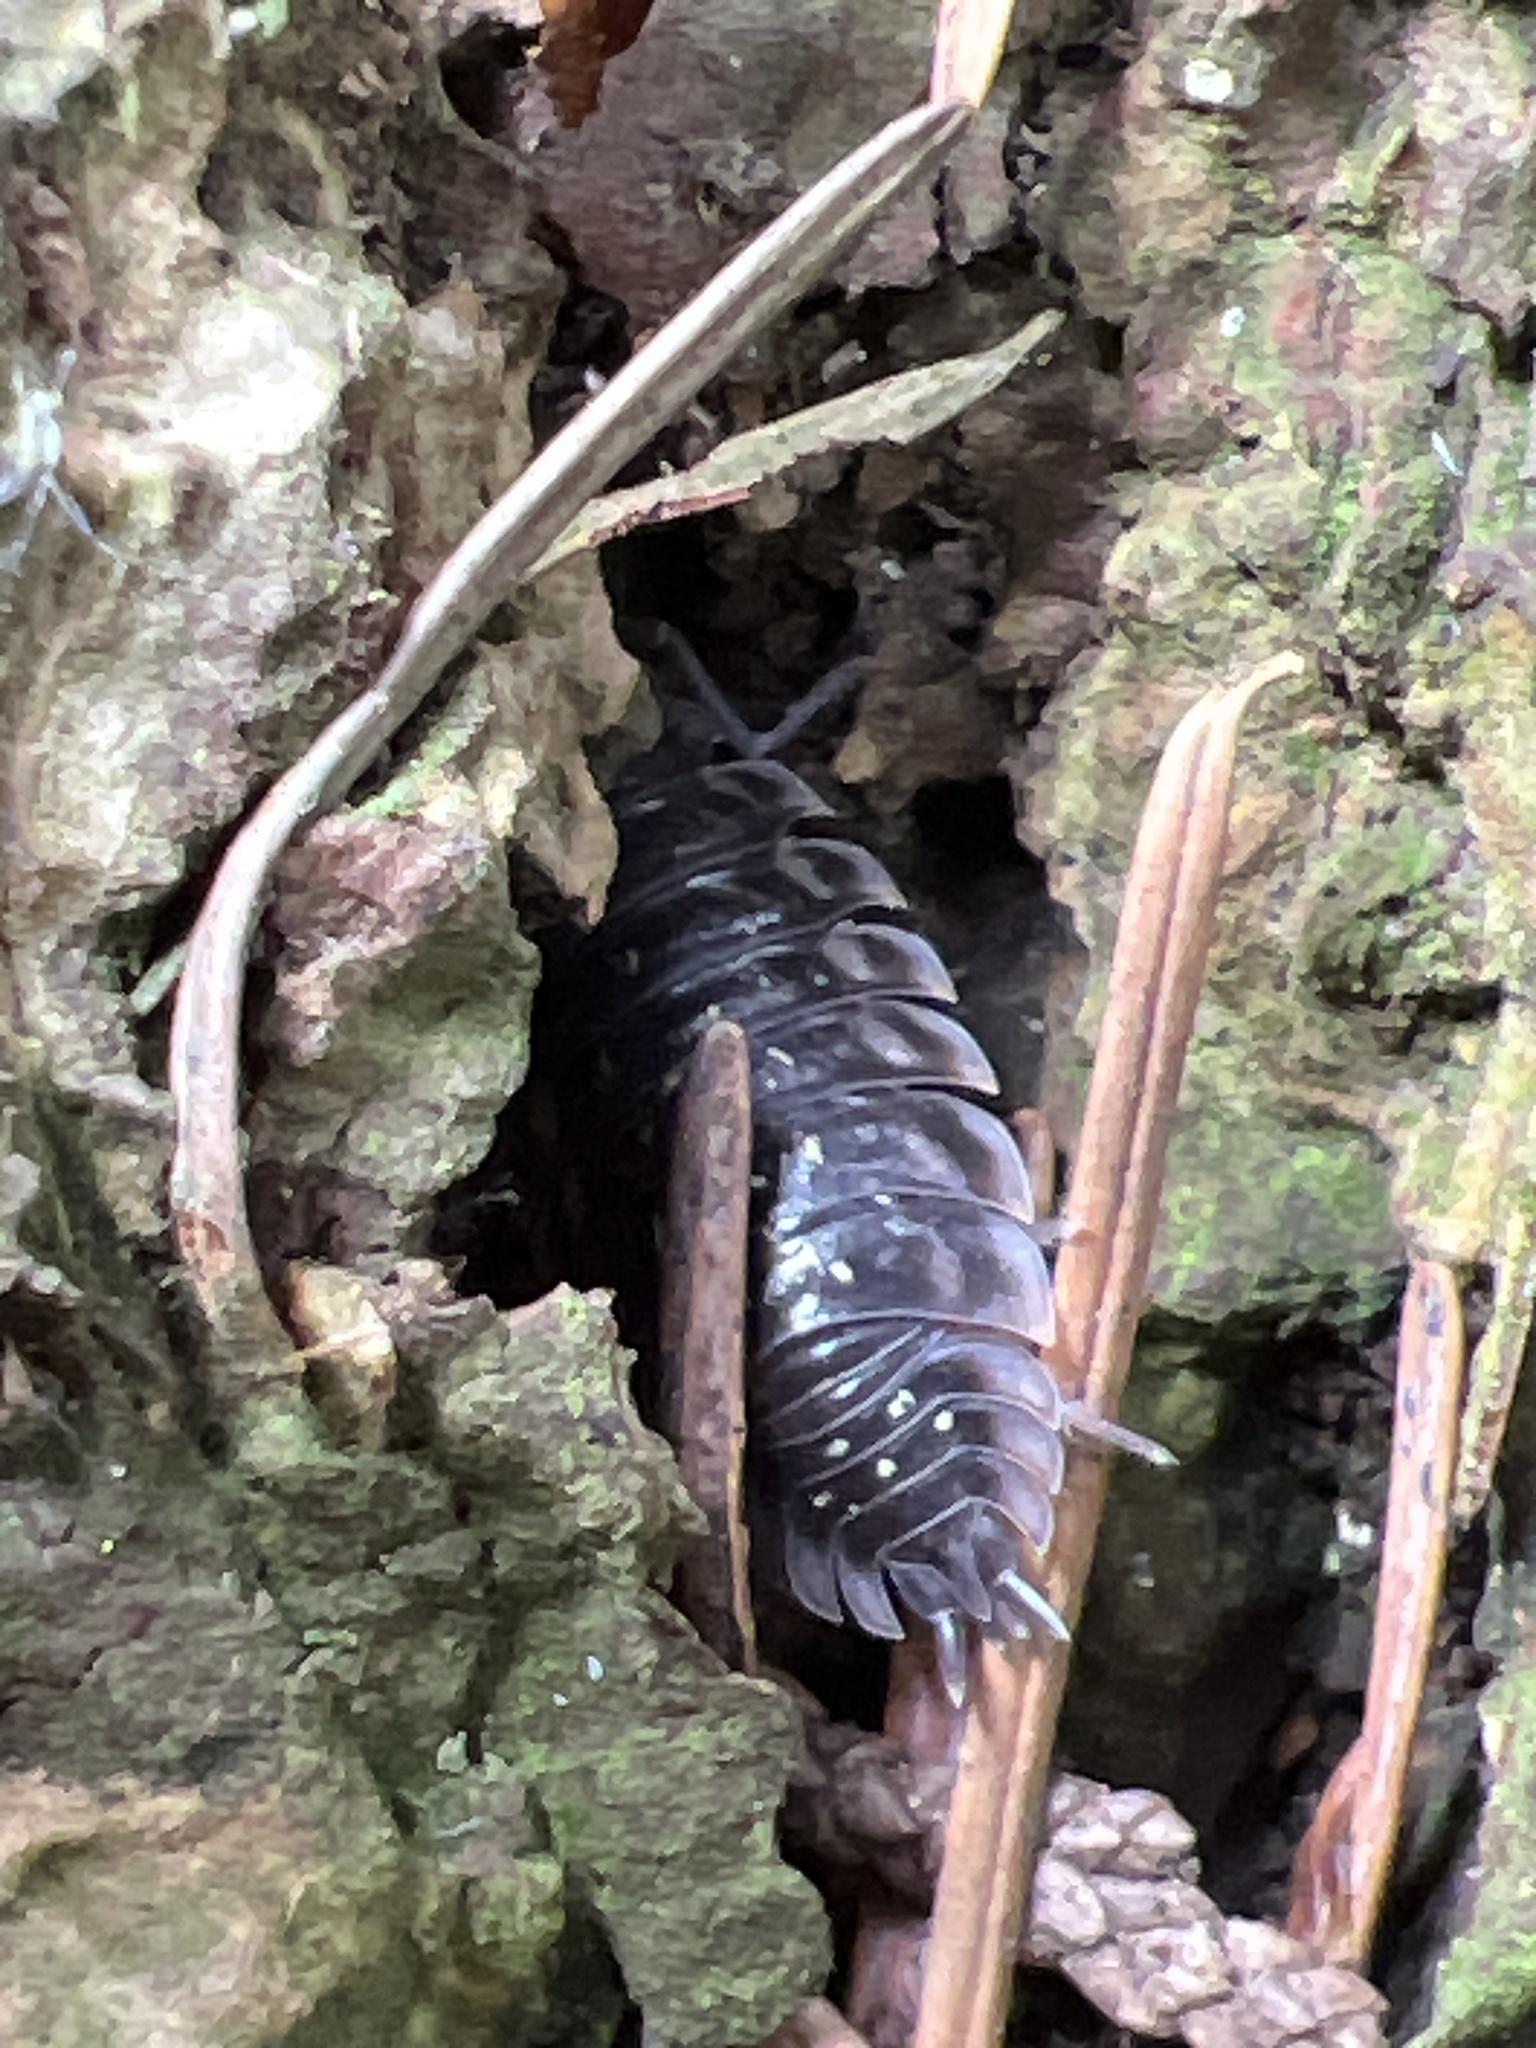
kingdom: Animalia
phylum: Arthropoda
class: Malacostraca
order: Isopoda
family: Oniscidae
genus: Oniscus
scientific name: Oniscus asellus
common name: Common shiny woodlouse
